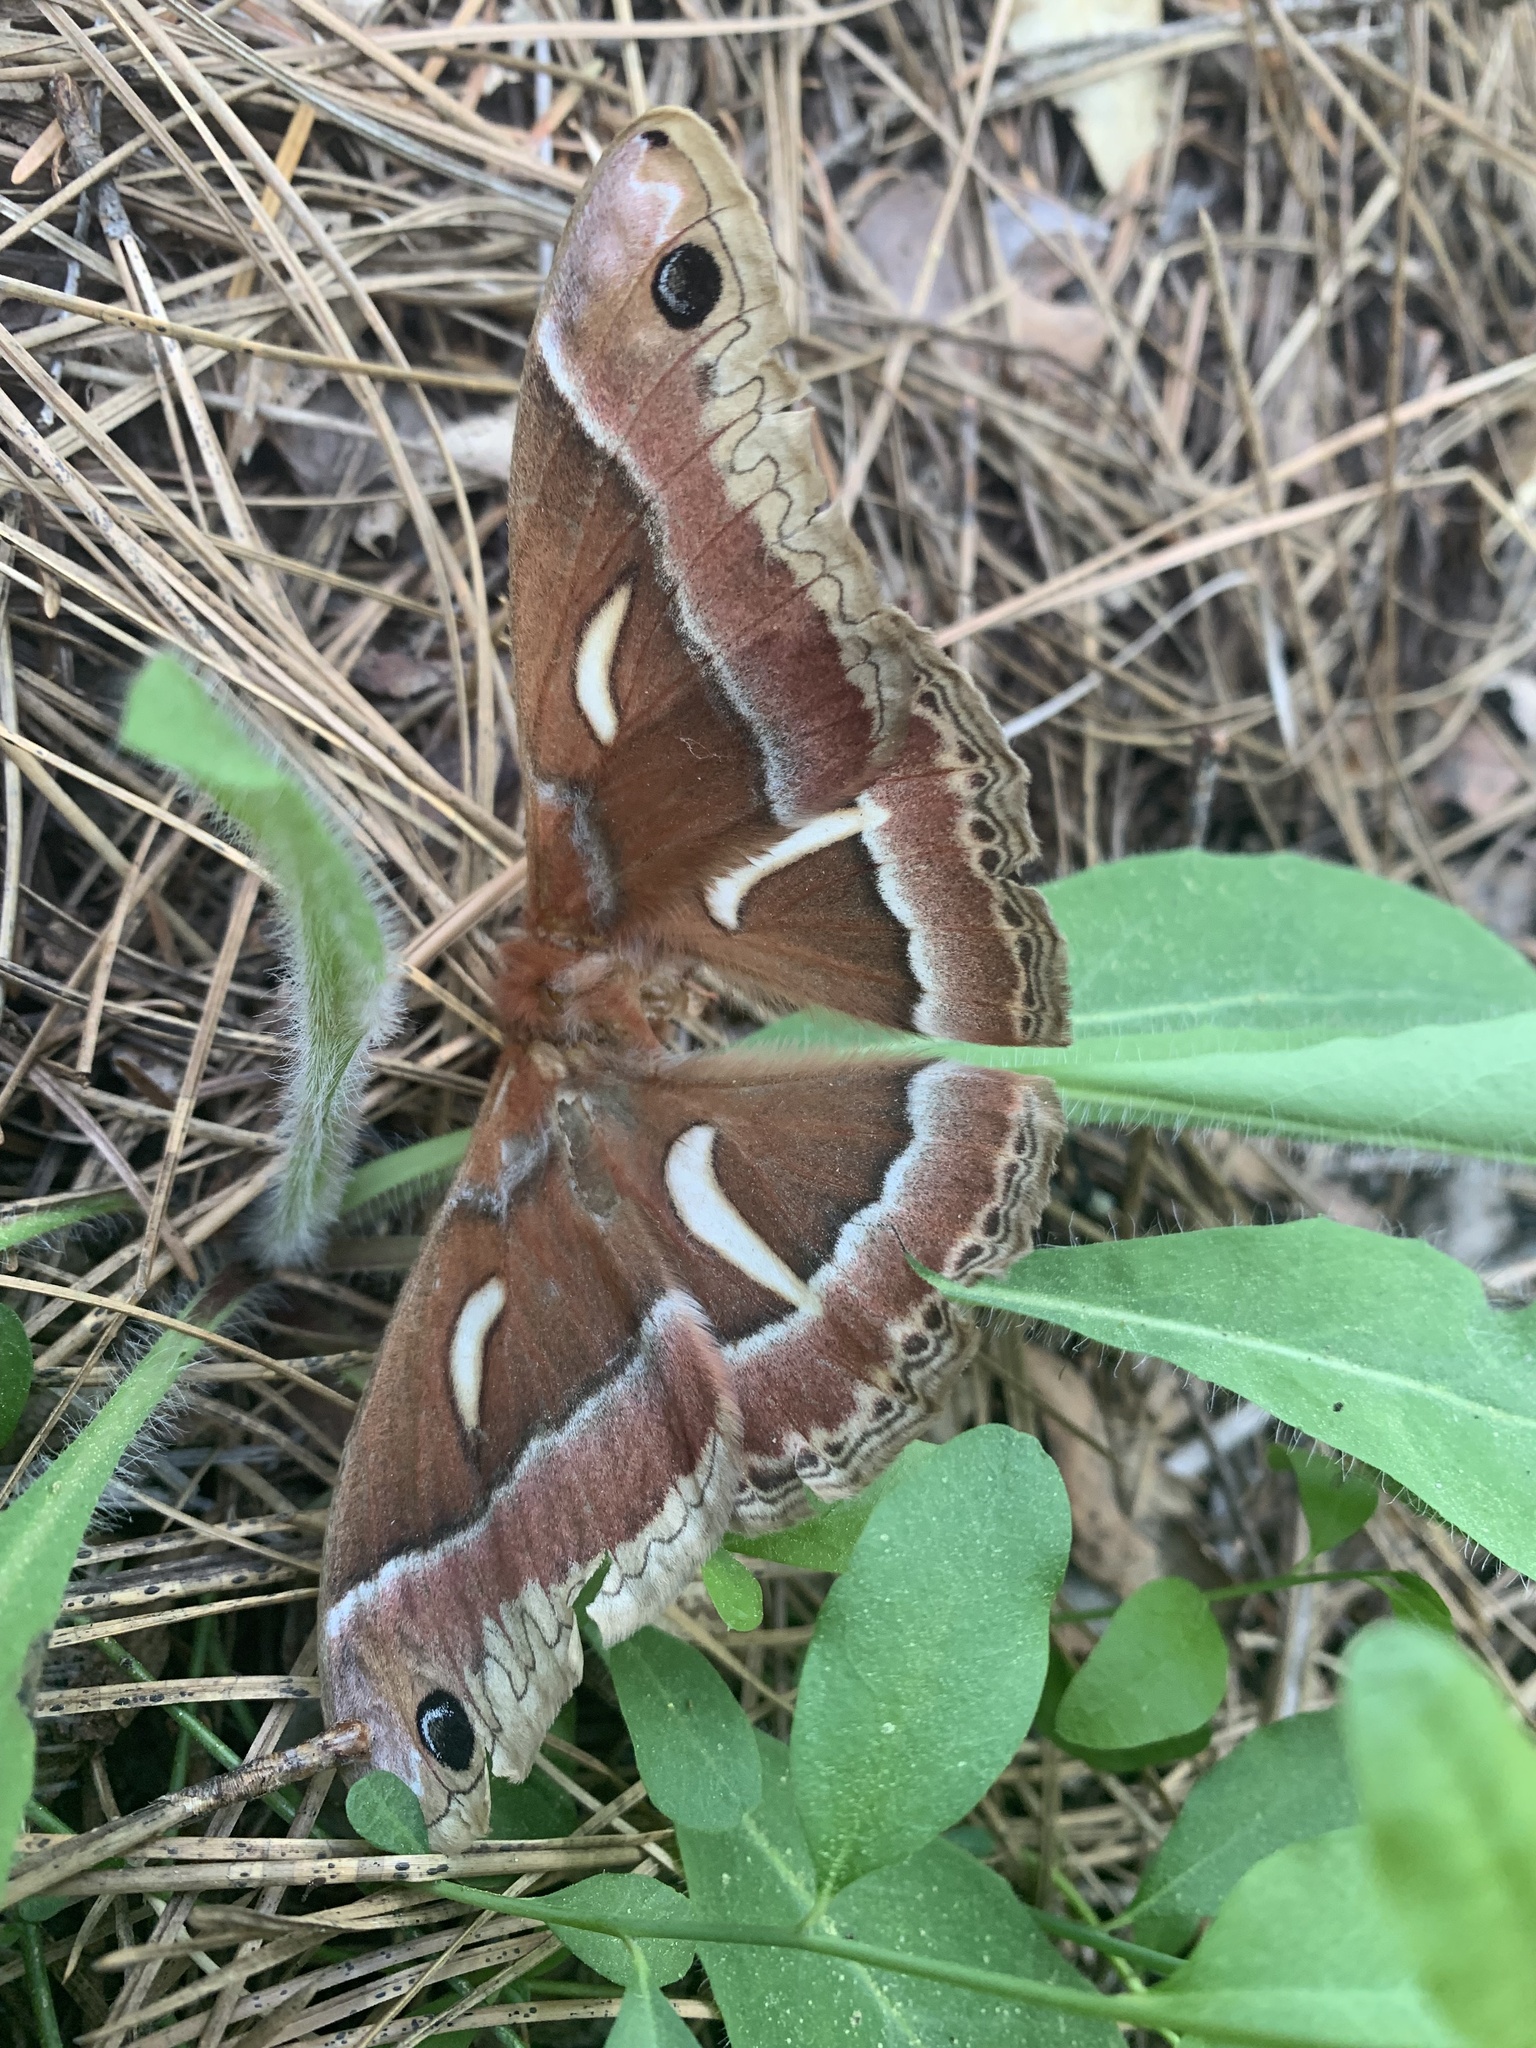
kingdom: Animalia
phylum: Arthropoda
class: Insecta
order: Lepidoptera
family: Saturniidae
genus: Hyalophora
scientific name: Hyalophora euryalus
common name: Ceanothus silkmoth
